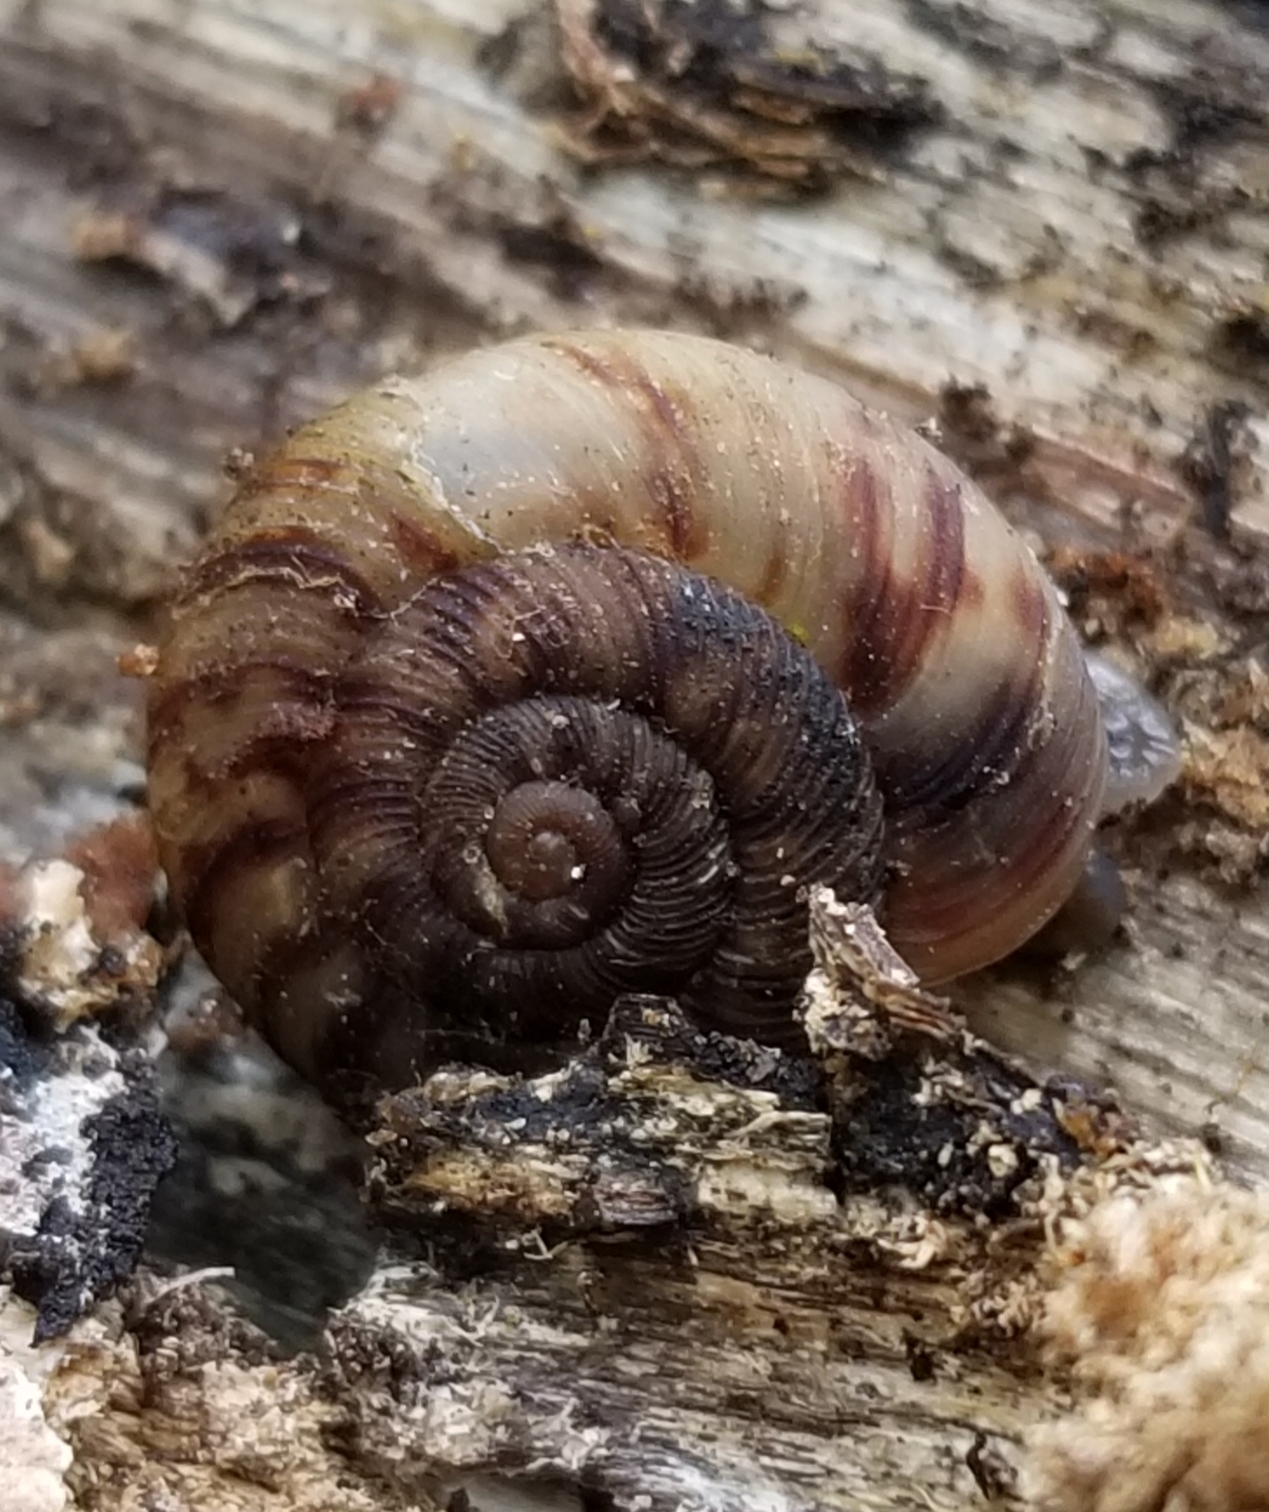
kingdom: Animalia
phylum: Mollusca
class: Gastropoda
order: Stylommatophora
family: Discidae
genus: Anguispira
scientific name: Anguispira alternata
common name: Flamed tigersnail
